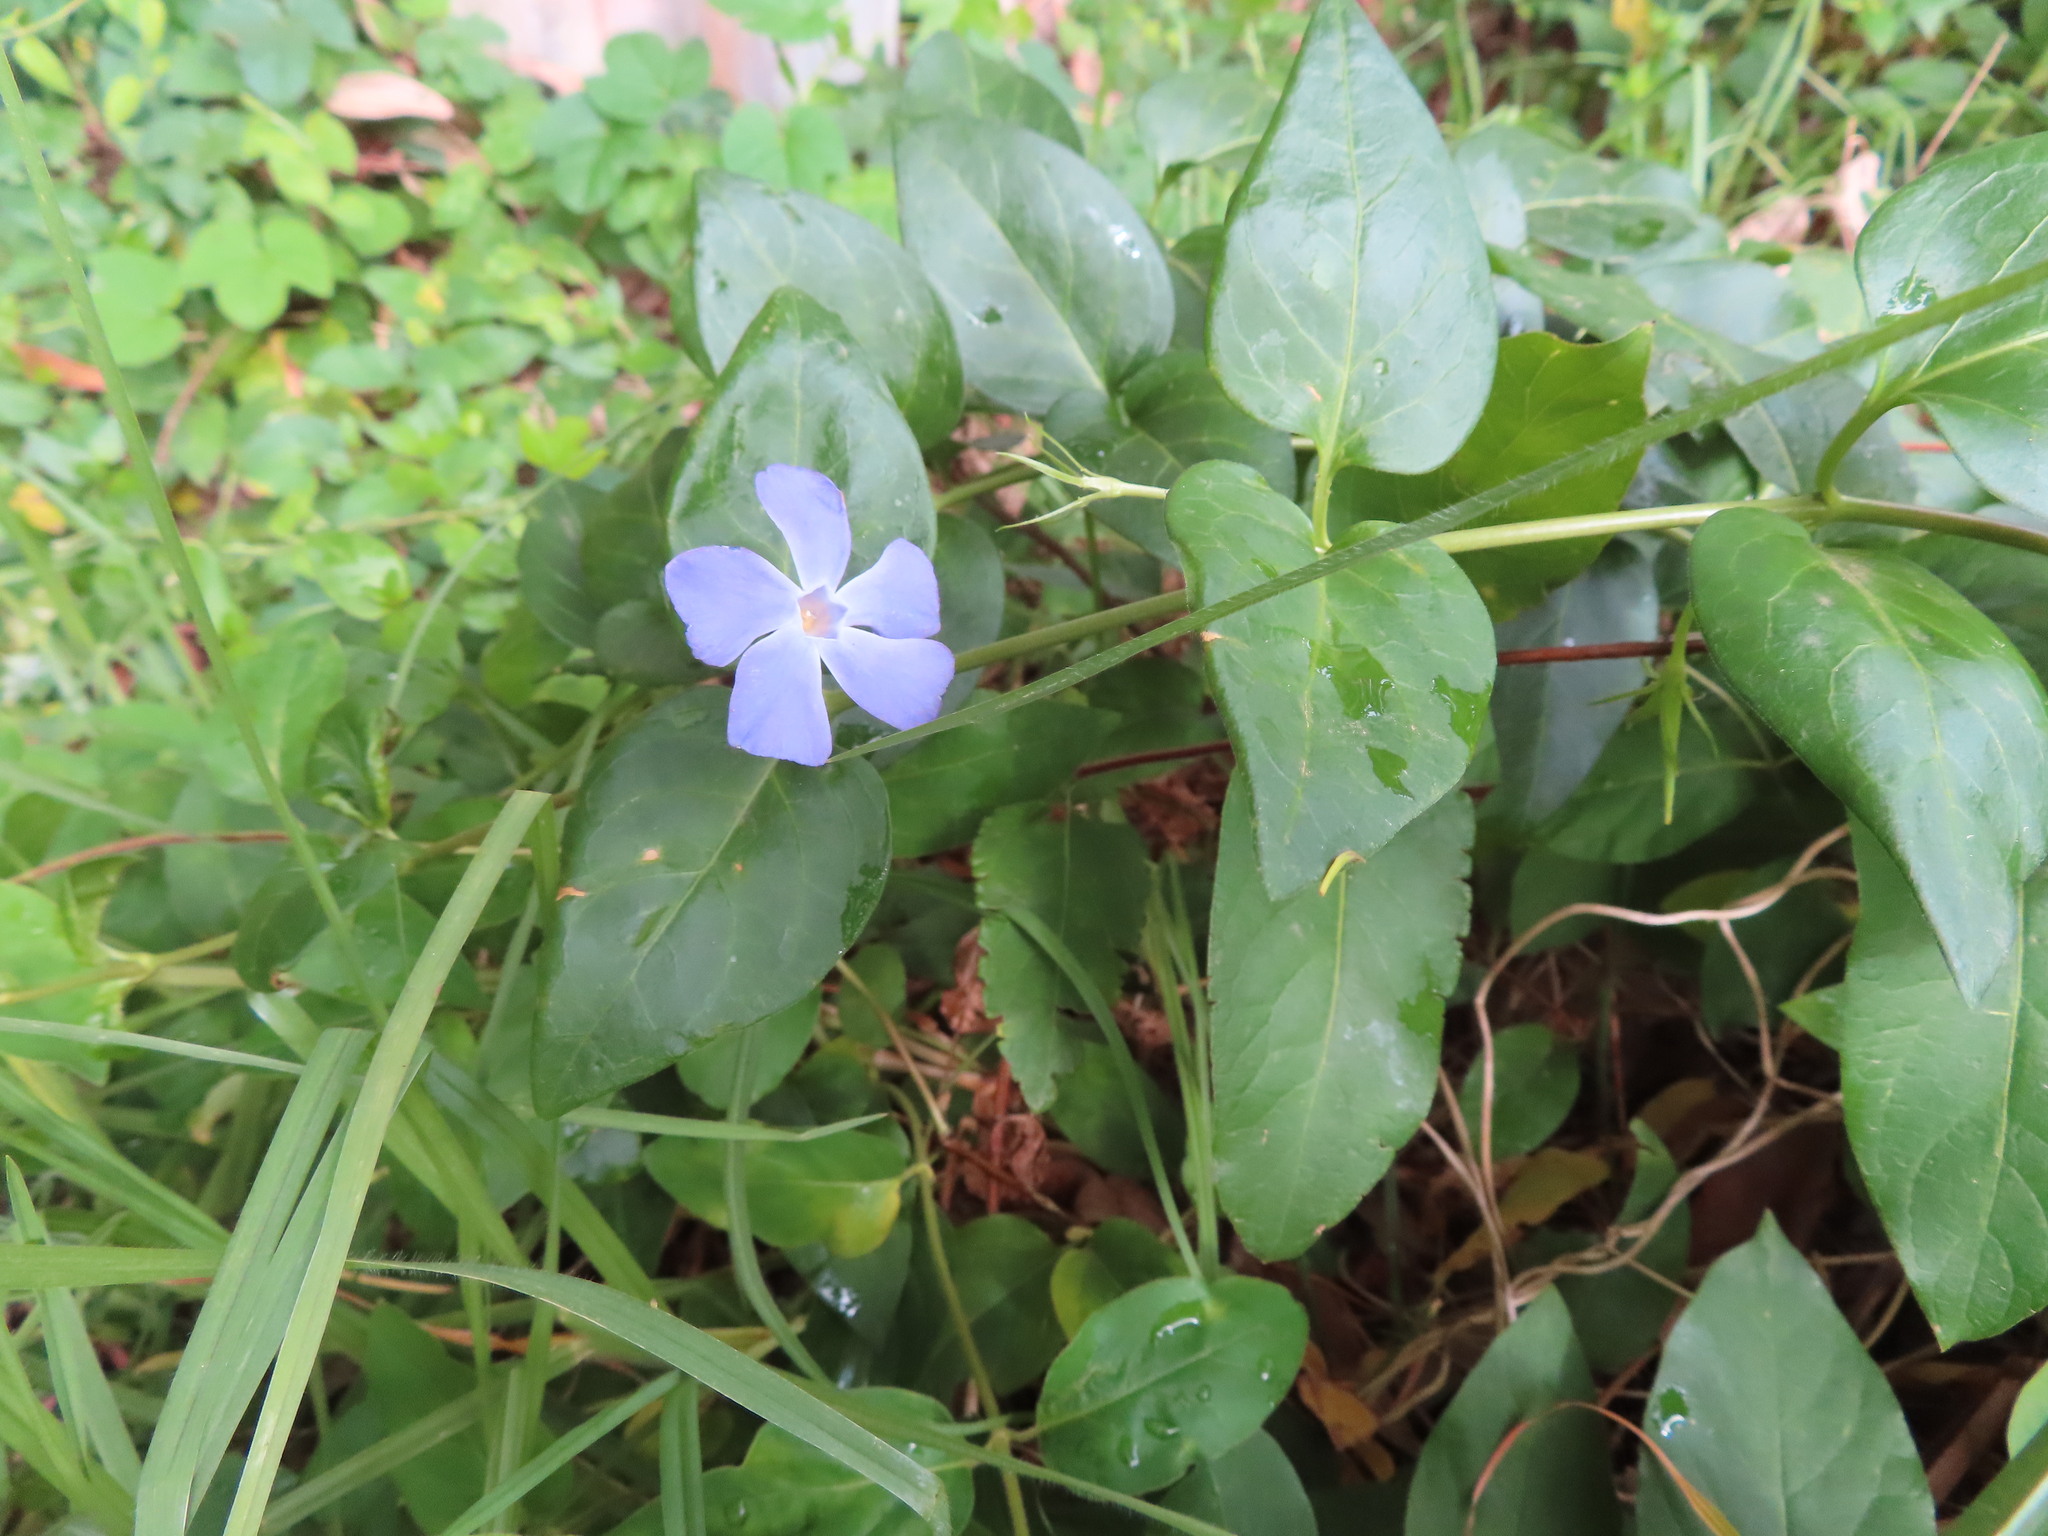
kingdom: Plantae
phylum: Tracheophyta
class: Magnoliopsida
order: Gentianales
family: Apocynaceae
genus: Vinca
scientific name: Vinca major
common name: Greater periwinkle
